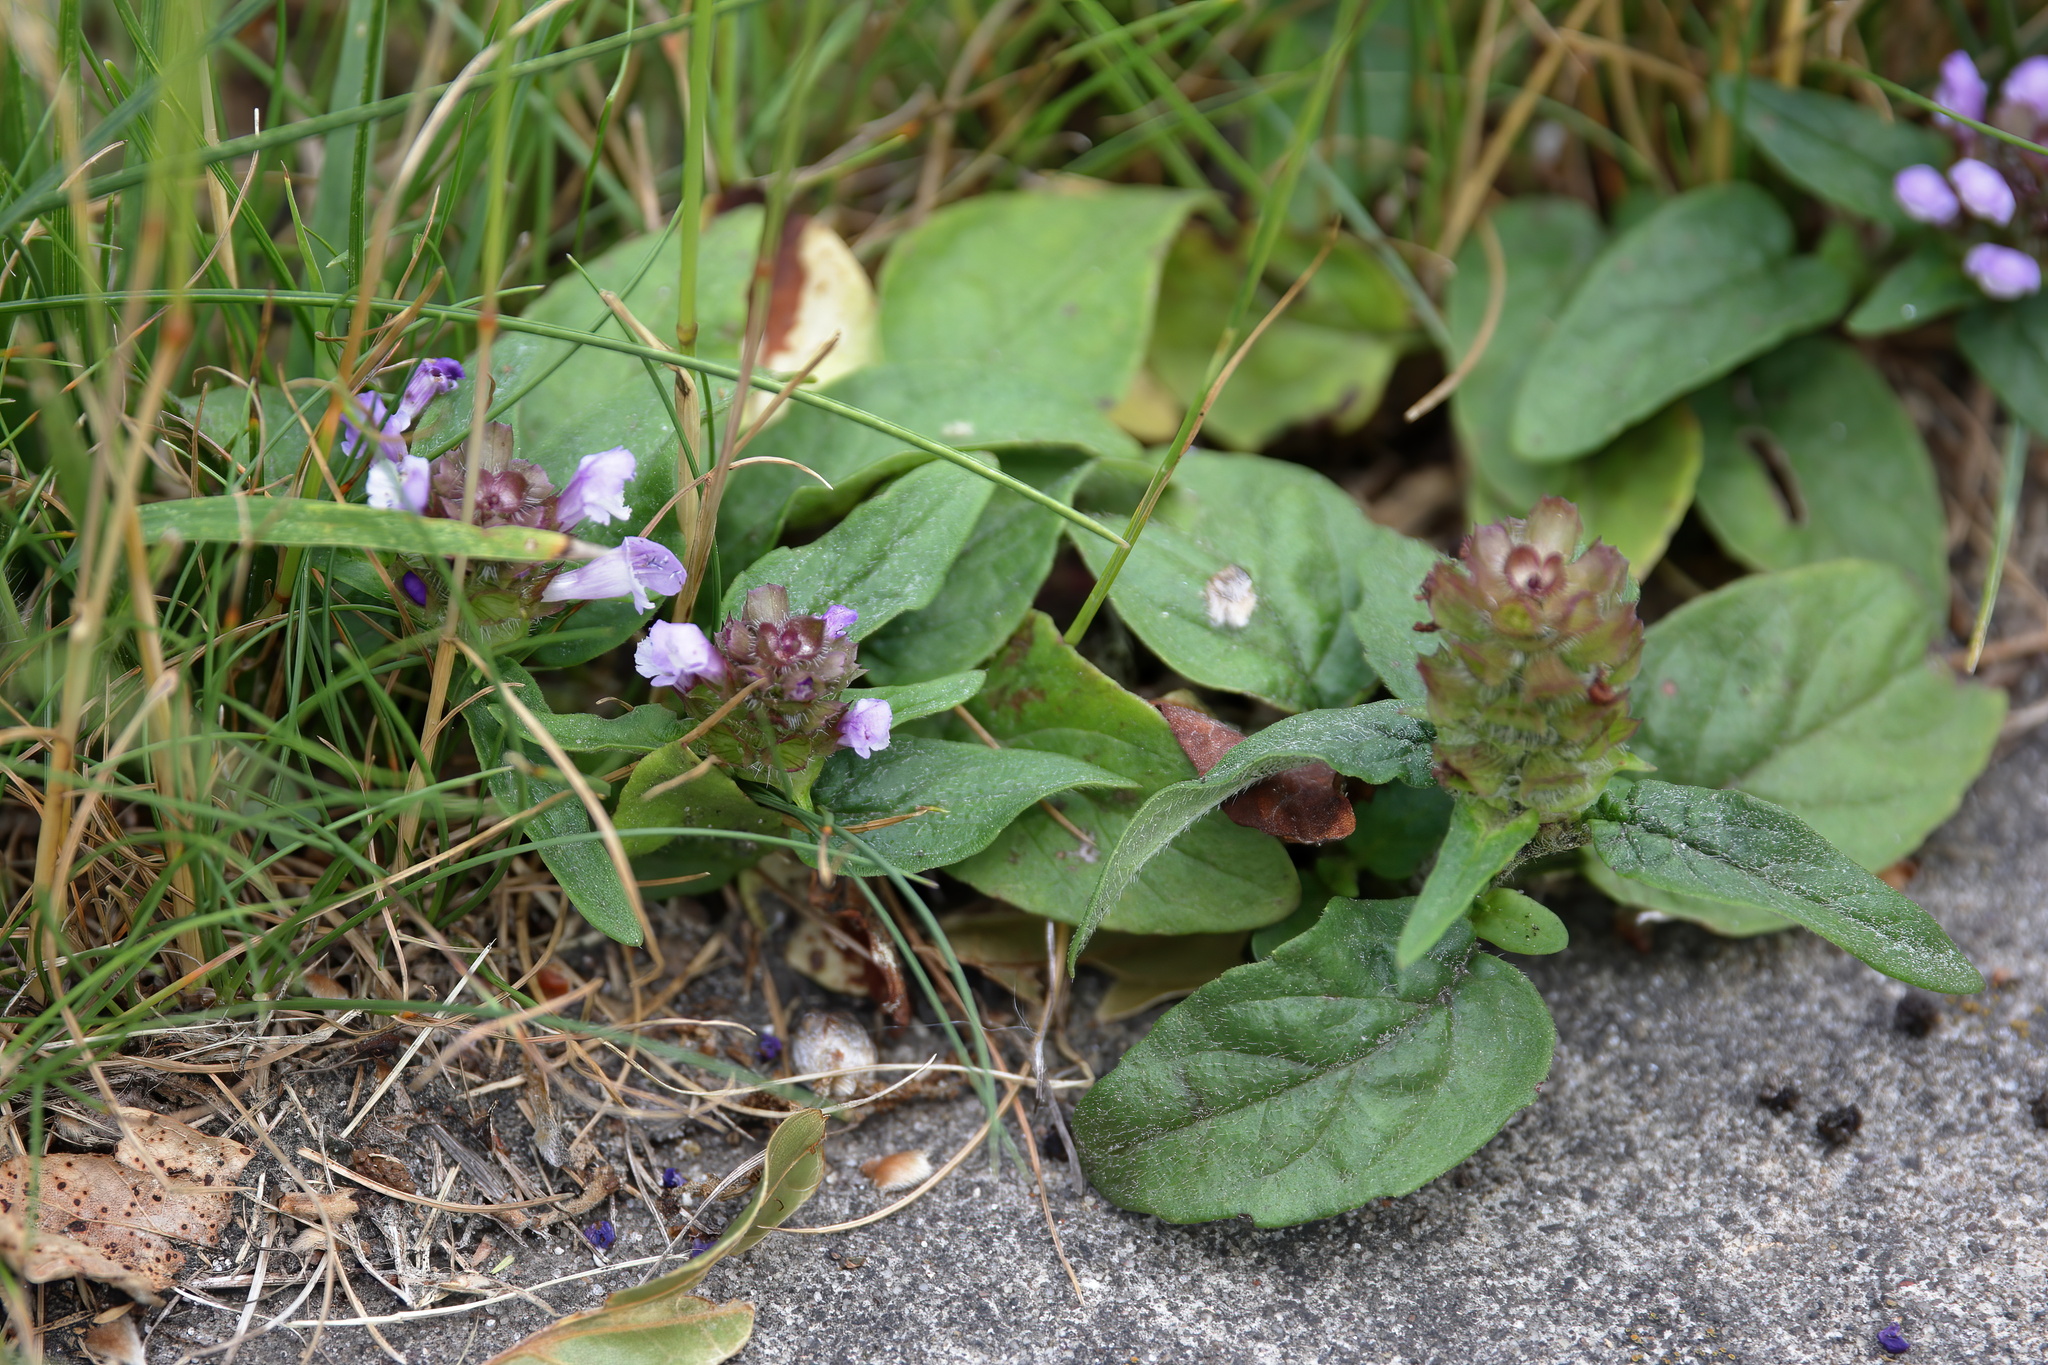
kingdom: Plantae
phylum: Tracheophyta
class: Magnoliopsida
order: Lamiales
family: Lamiaceae
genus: Prunella
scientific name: Prunella vulgaris
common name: Heal-all
